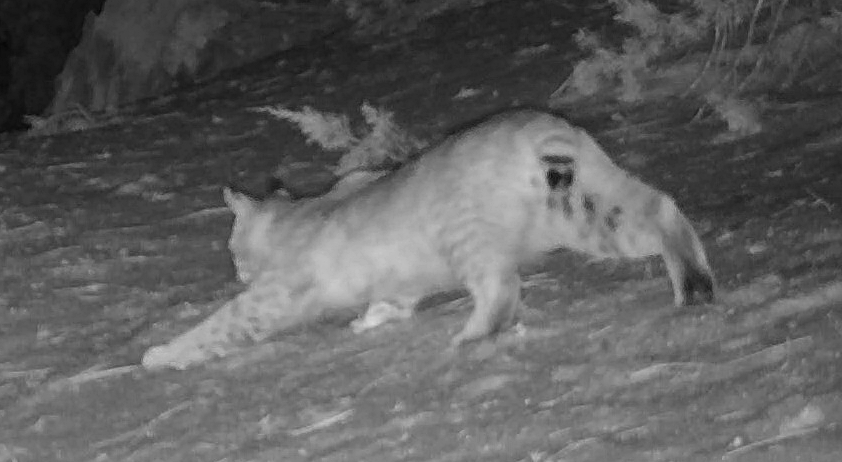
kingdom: Animalia
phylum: Chordata
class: Mammalia
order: Carnivora
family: Felidae
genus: Lynx
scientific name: Lynx rufus
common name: Bobcat
